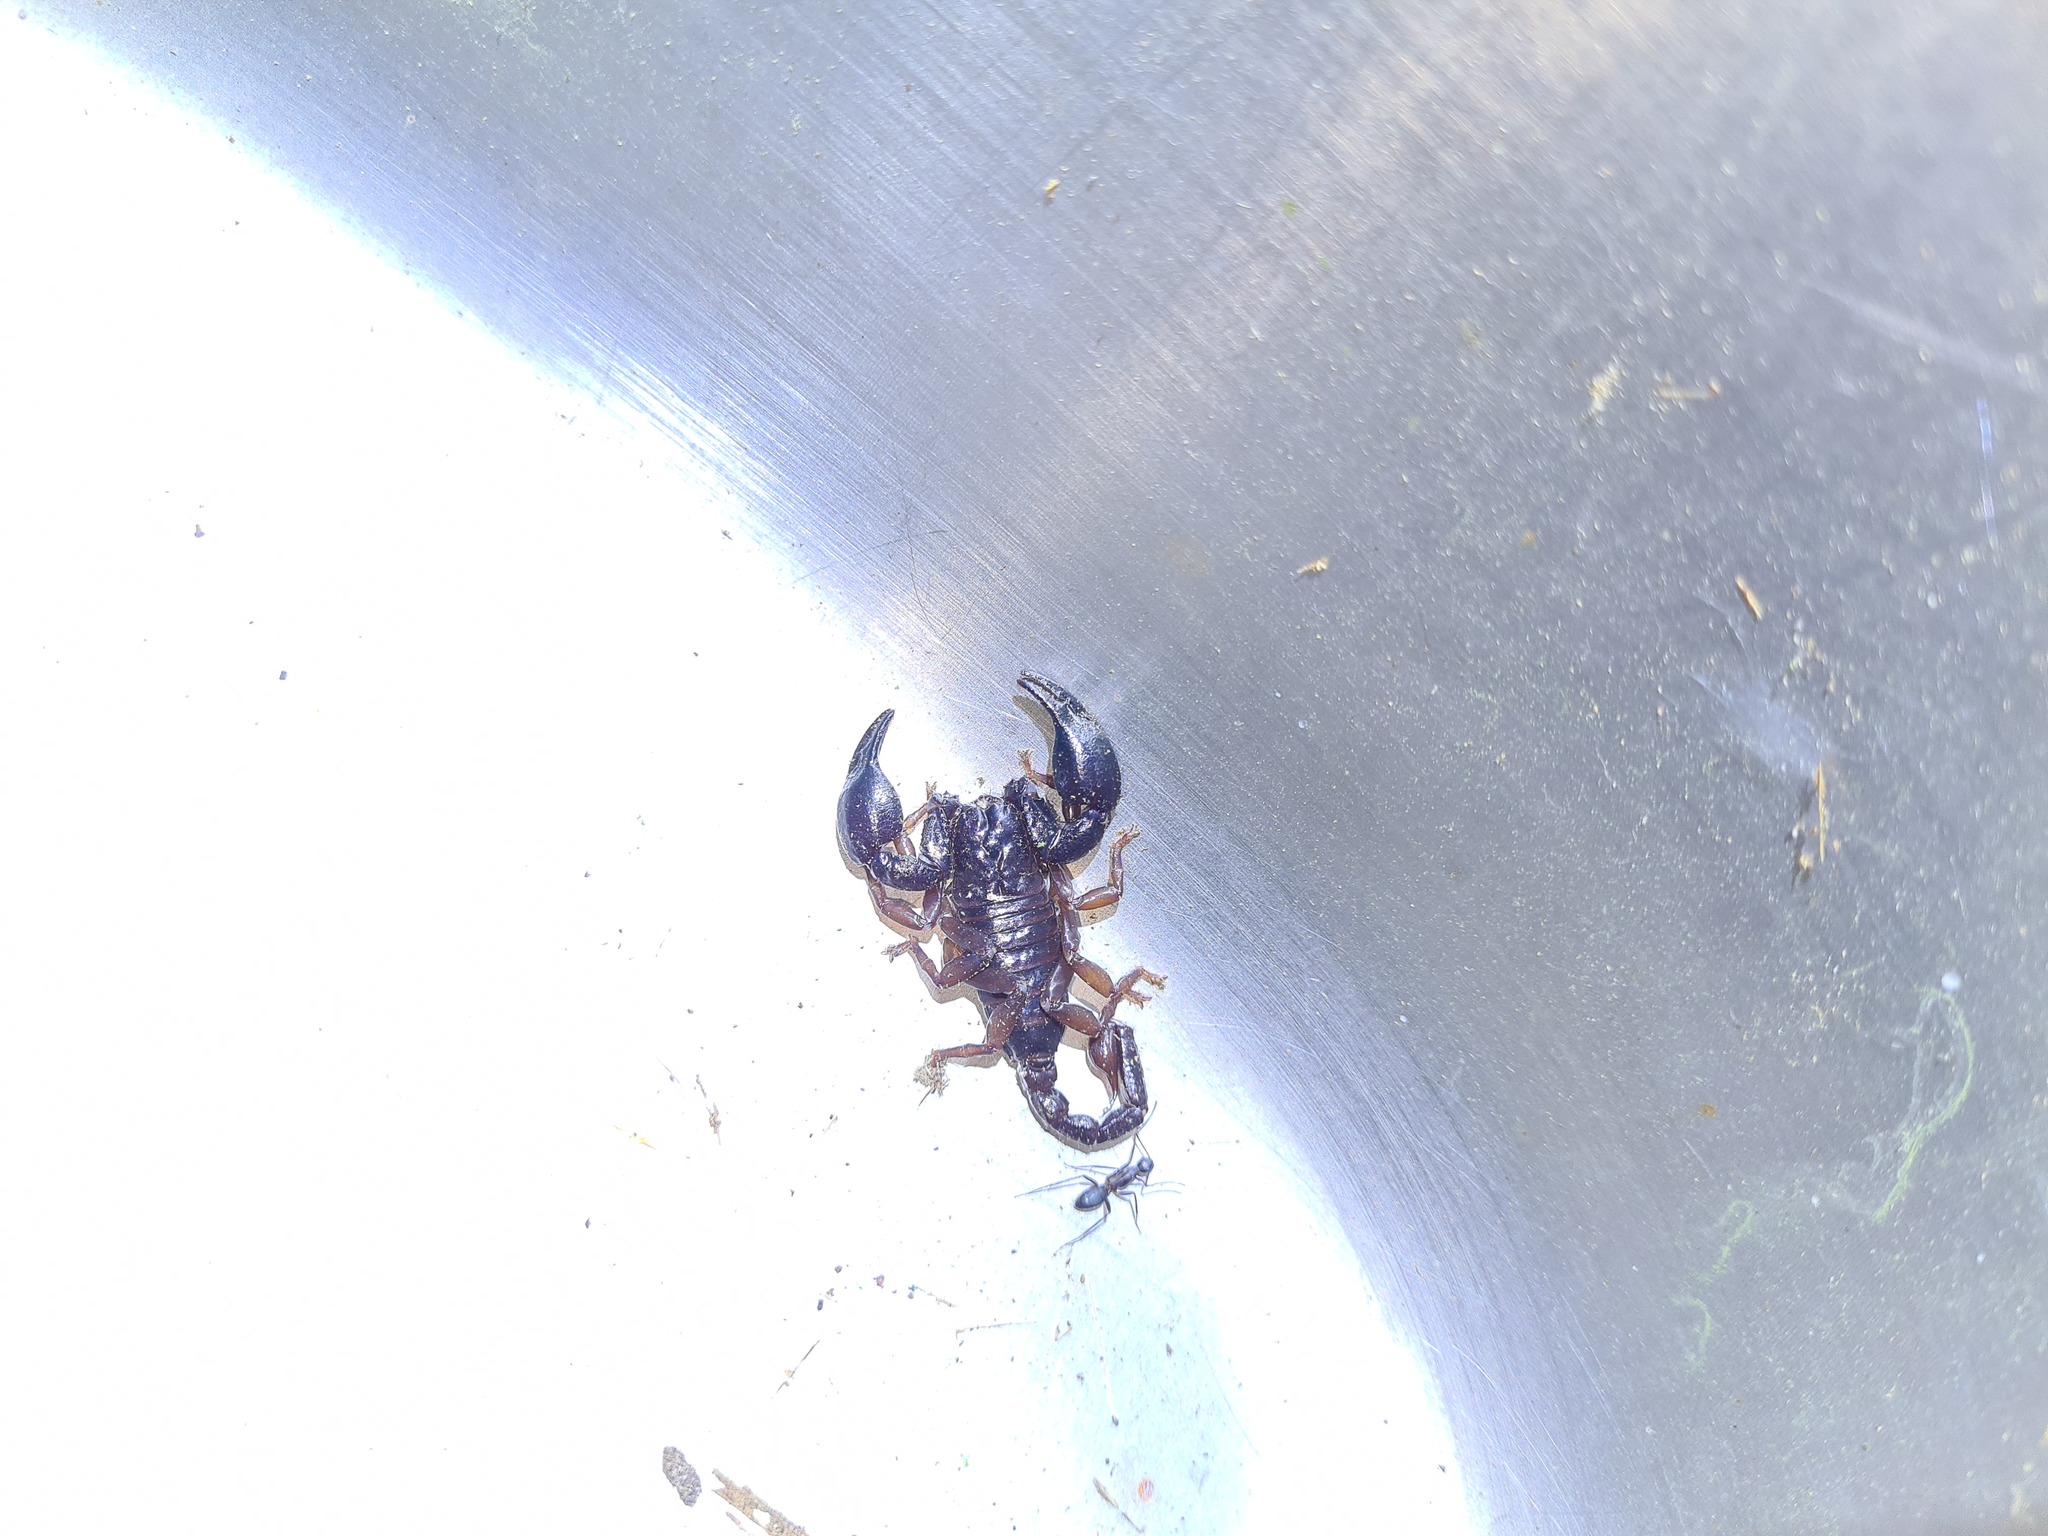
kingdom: Animalia
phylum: Arthropoda
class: Arachnida
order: Scorpiones
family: Chactidae
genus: Teuthraustes
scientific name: Teuthraustes atramentarius
